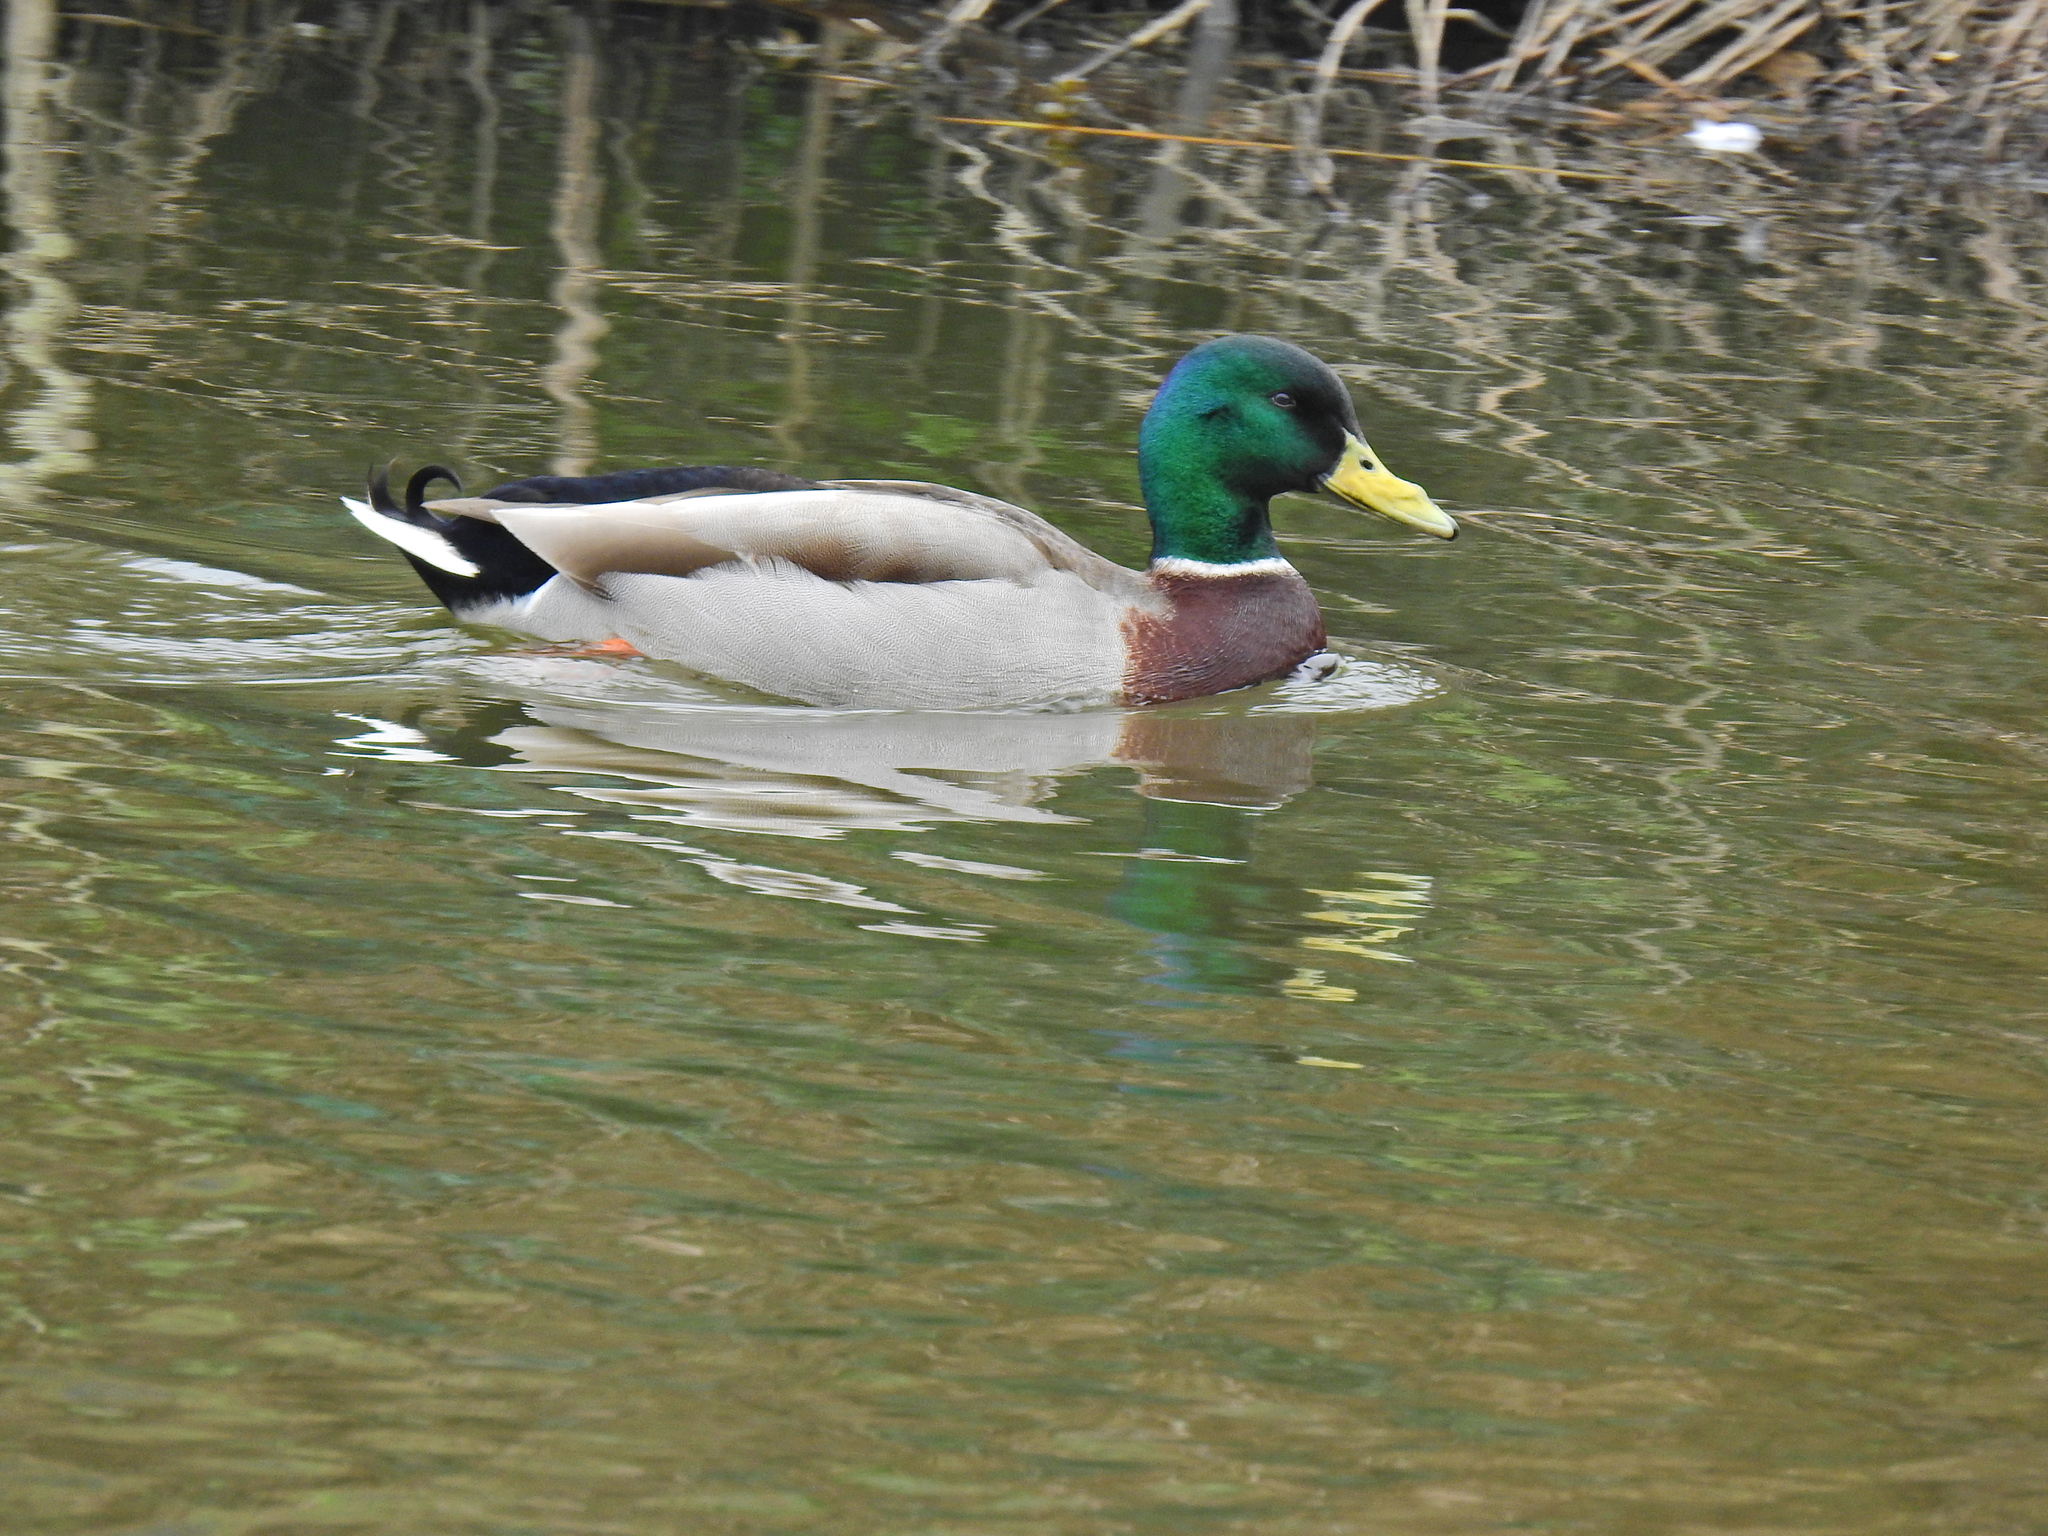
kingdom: Animalia
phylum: Chordata
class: Aves
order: Anseriformes
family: Anatidae
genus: Anas
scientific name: Anas platyrhynchos
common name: Mallard
